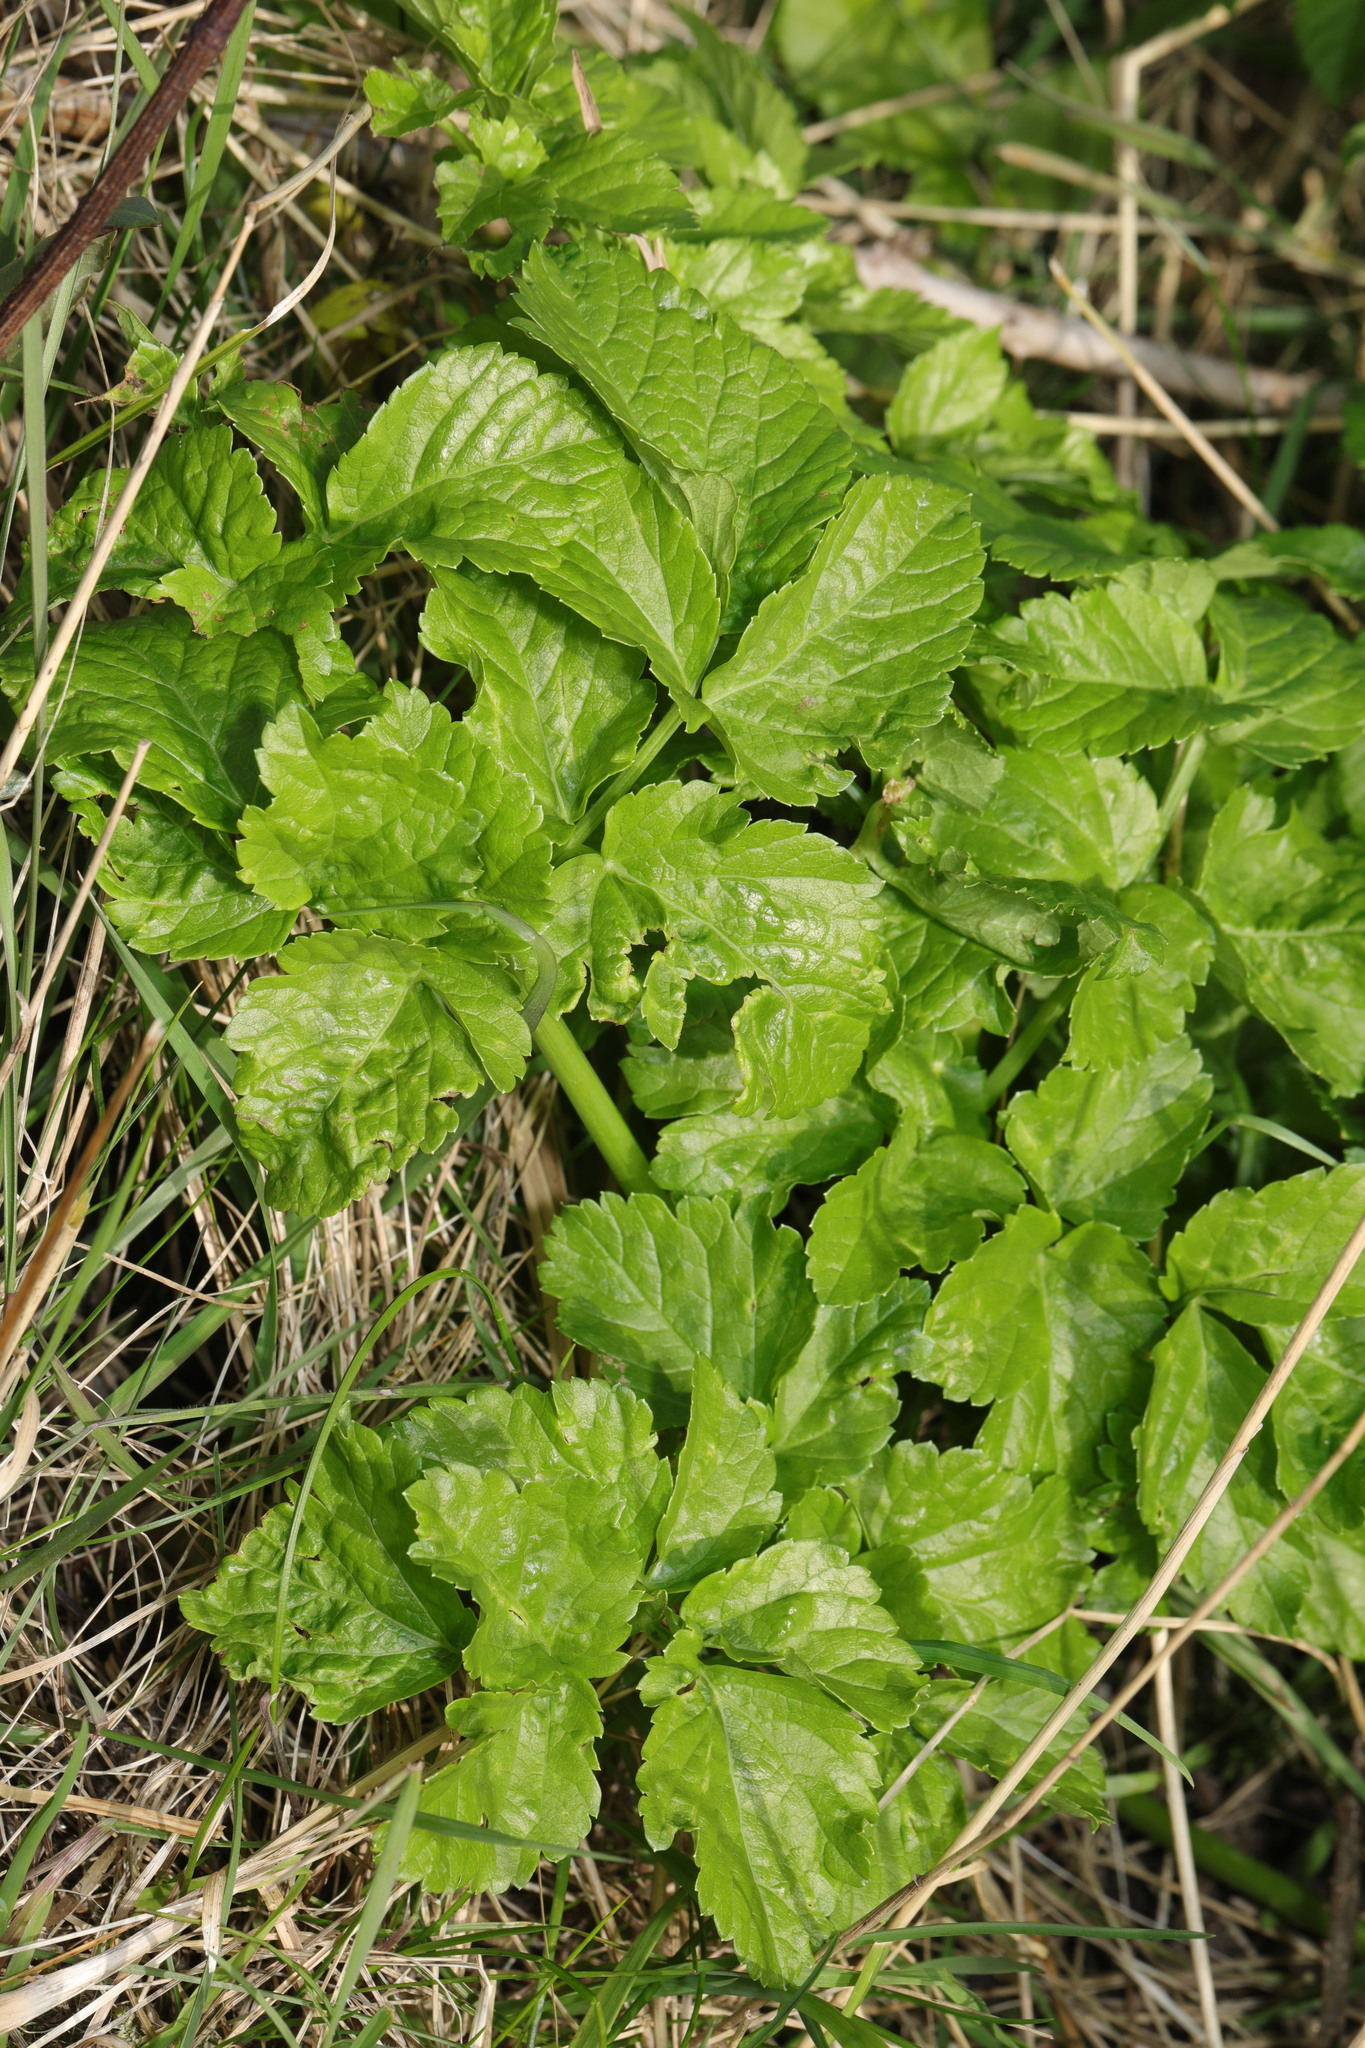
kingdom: Plantae
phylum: Tracheophyta
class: Magnoliopsida
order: Apiales
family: Apiaceae
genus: Smyrnium
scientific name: Smyrnium olusatrum
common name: Alexanders
